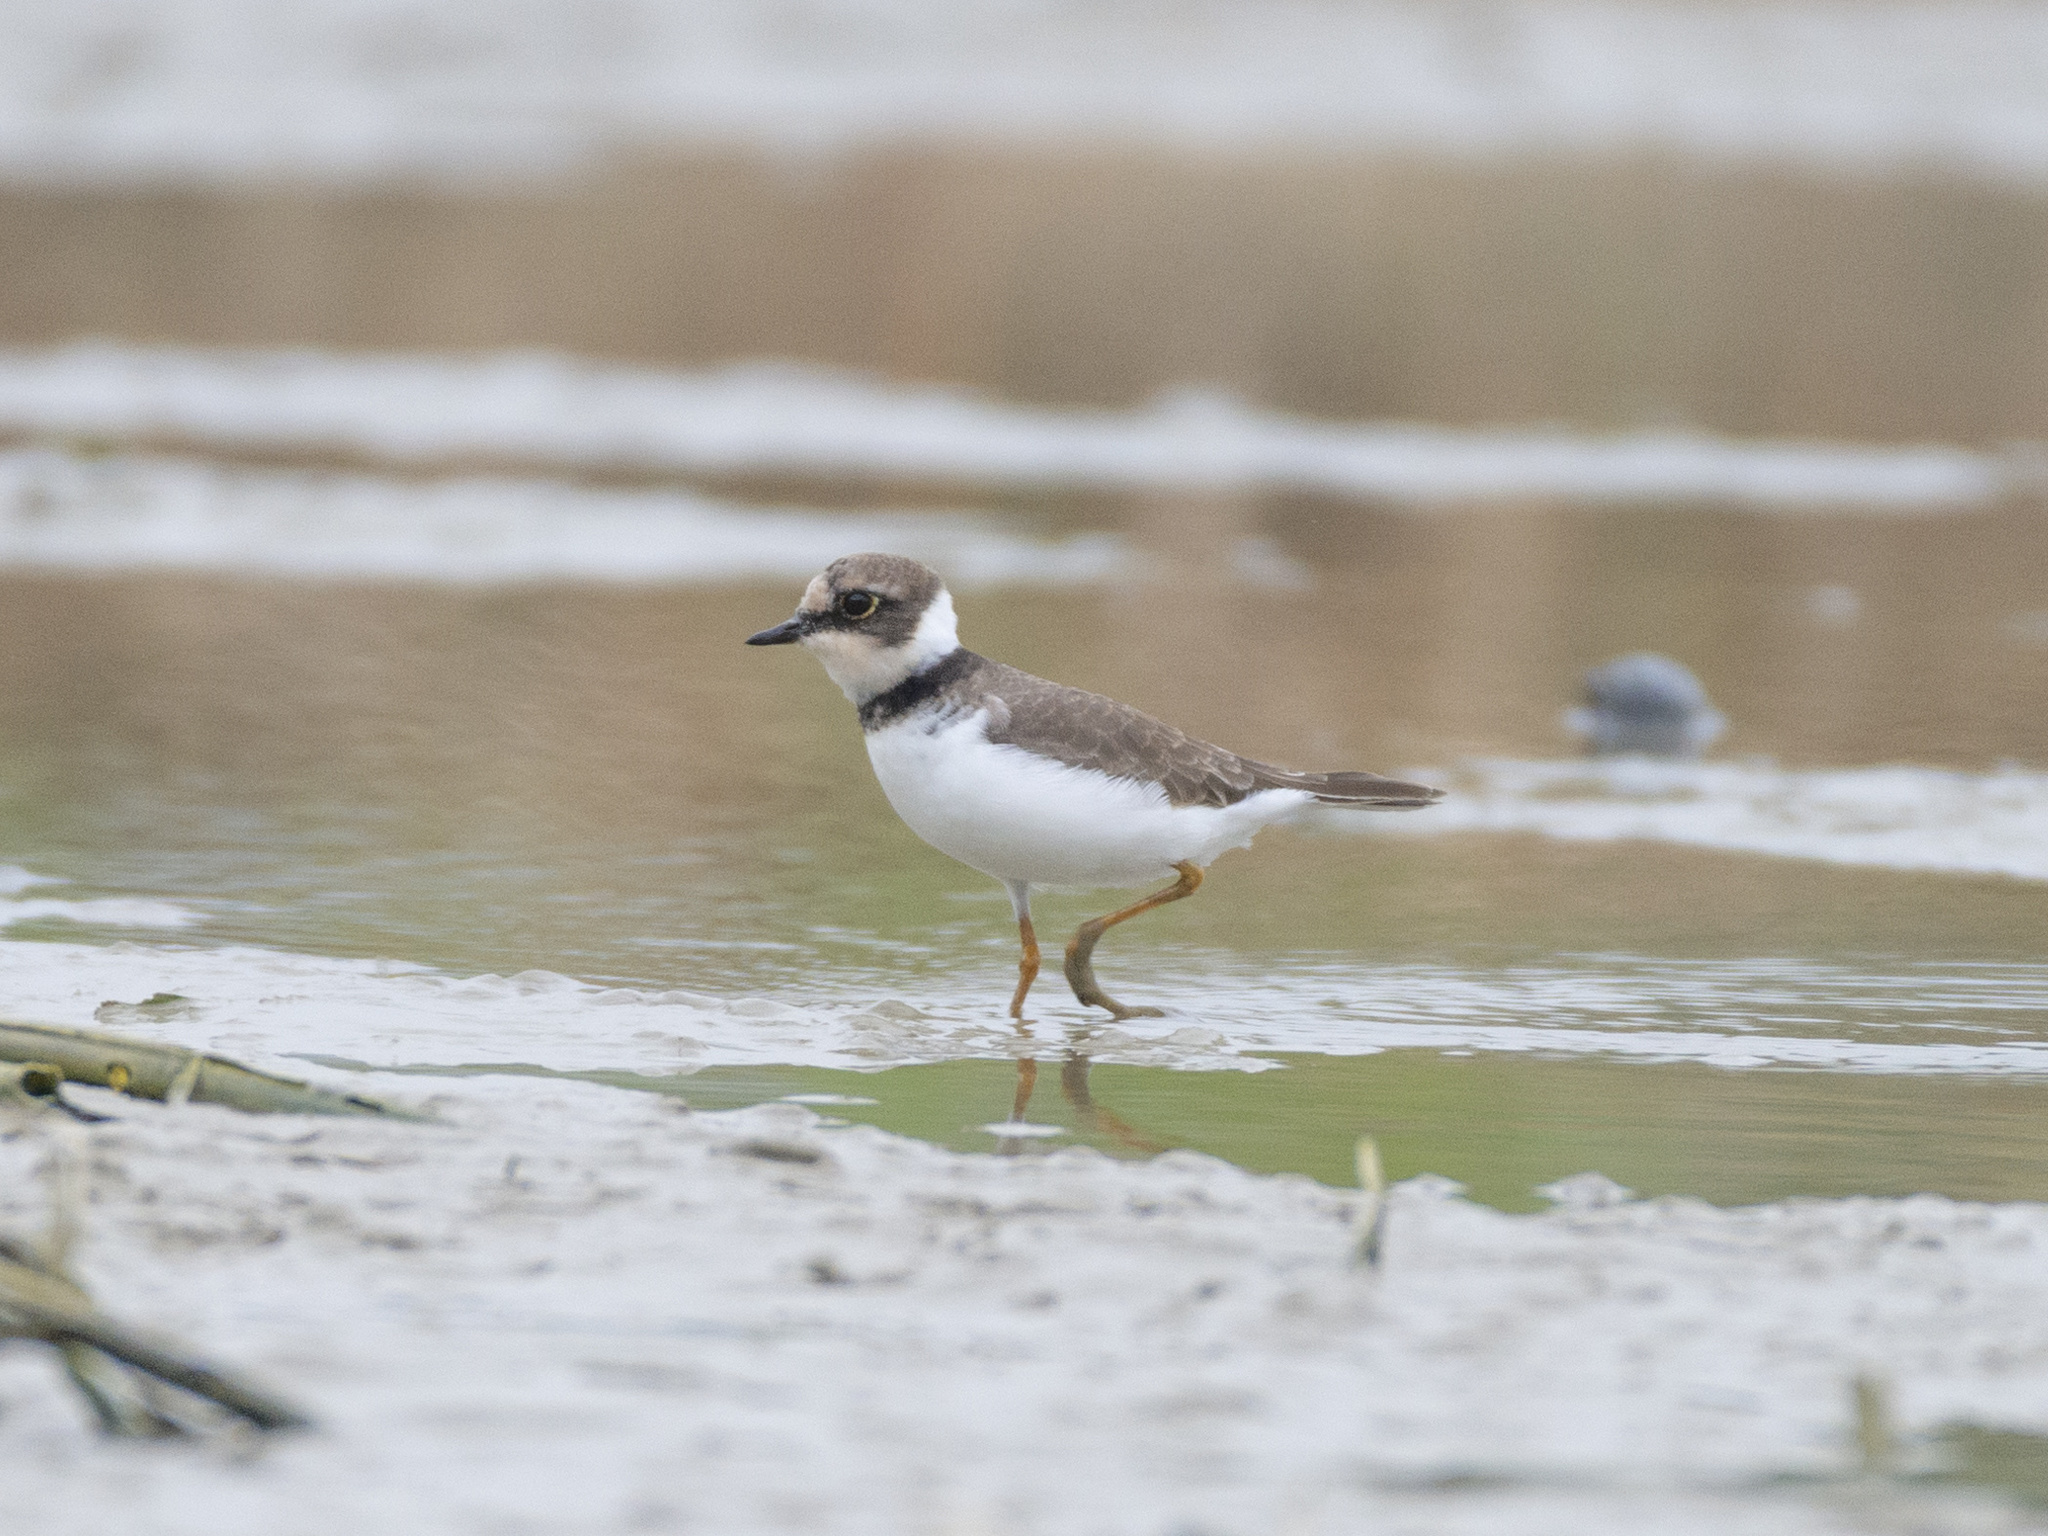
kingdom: Animalia
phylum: Chordata
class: Aves
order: Charadriiformes
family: Charadriidae
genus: Charadrius
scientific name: Charadrius dubius
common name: Little ringed plover
